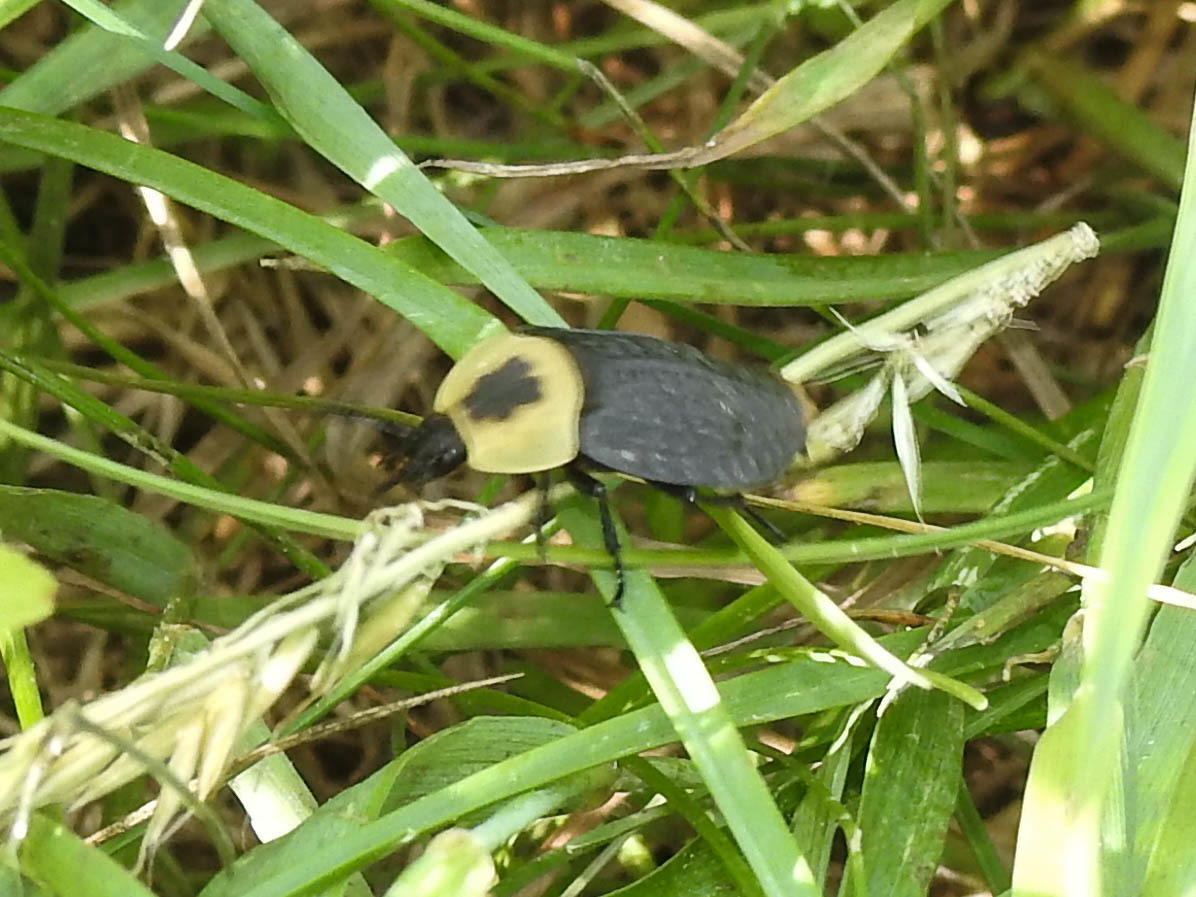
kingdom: Animalia
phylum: Arthropoda
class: Insecta
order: Coleoptera
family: Staphylinidae
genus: Necrophila
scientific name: Necrophila americana
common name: American carrion beetle
